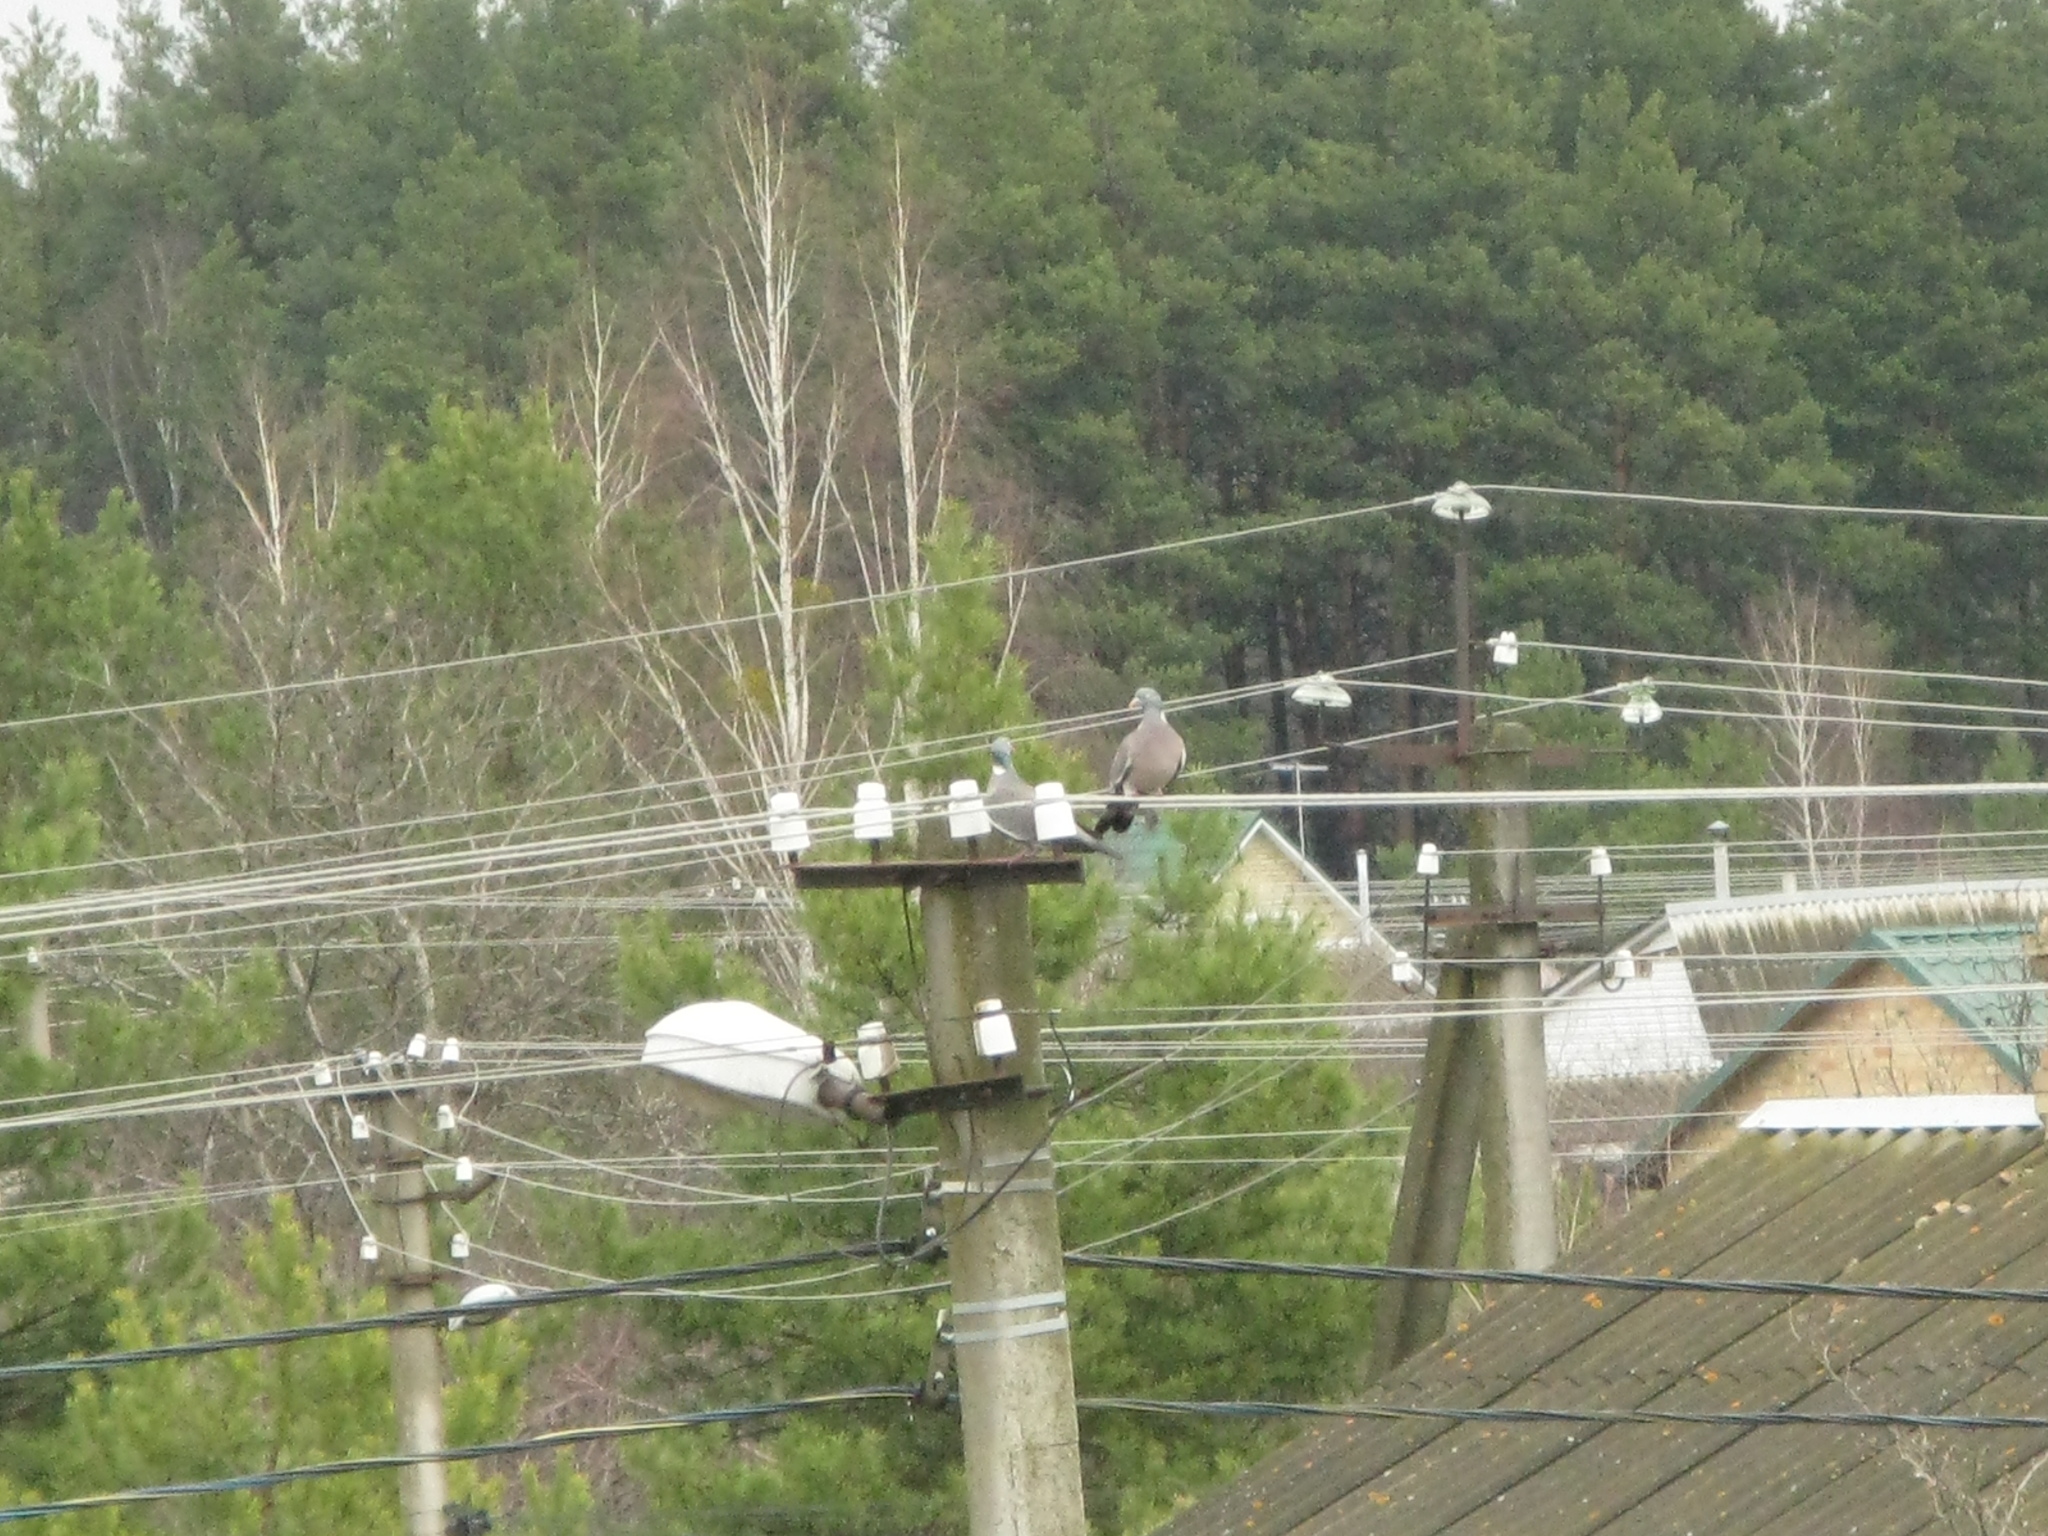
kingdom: Animalia
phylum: Chordata
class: Aves
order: Columbiformes
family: Columbidae
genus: Columba
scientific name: Columba palumbus
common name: Common wood pigeon
